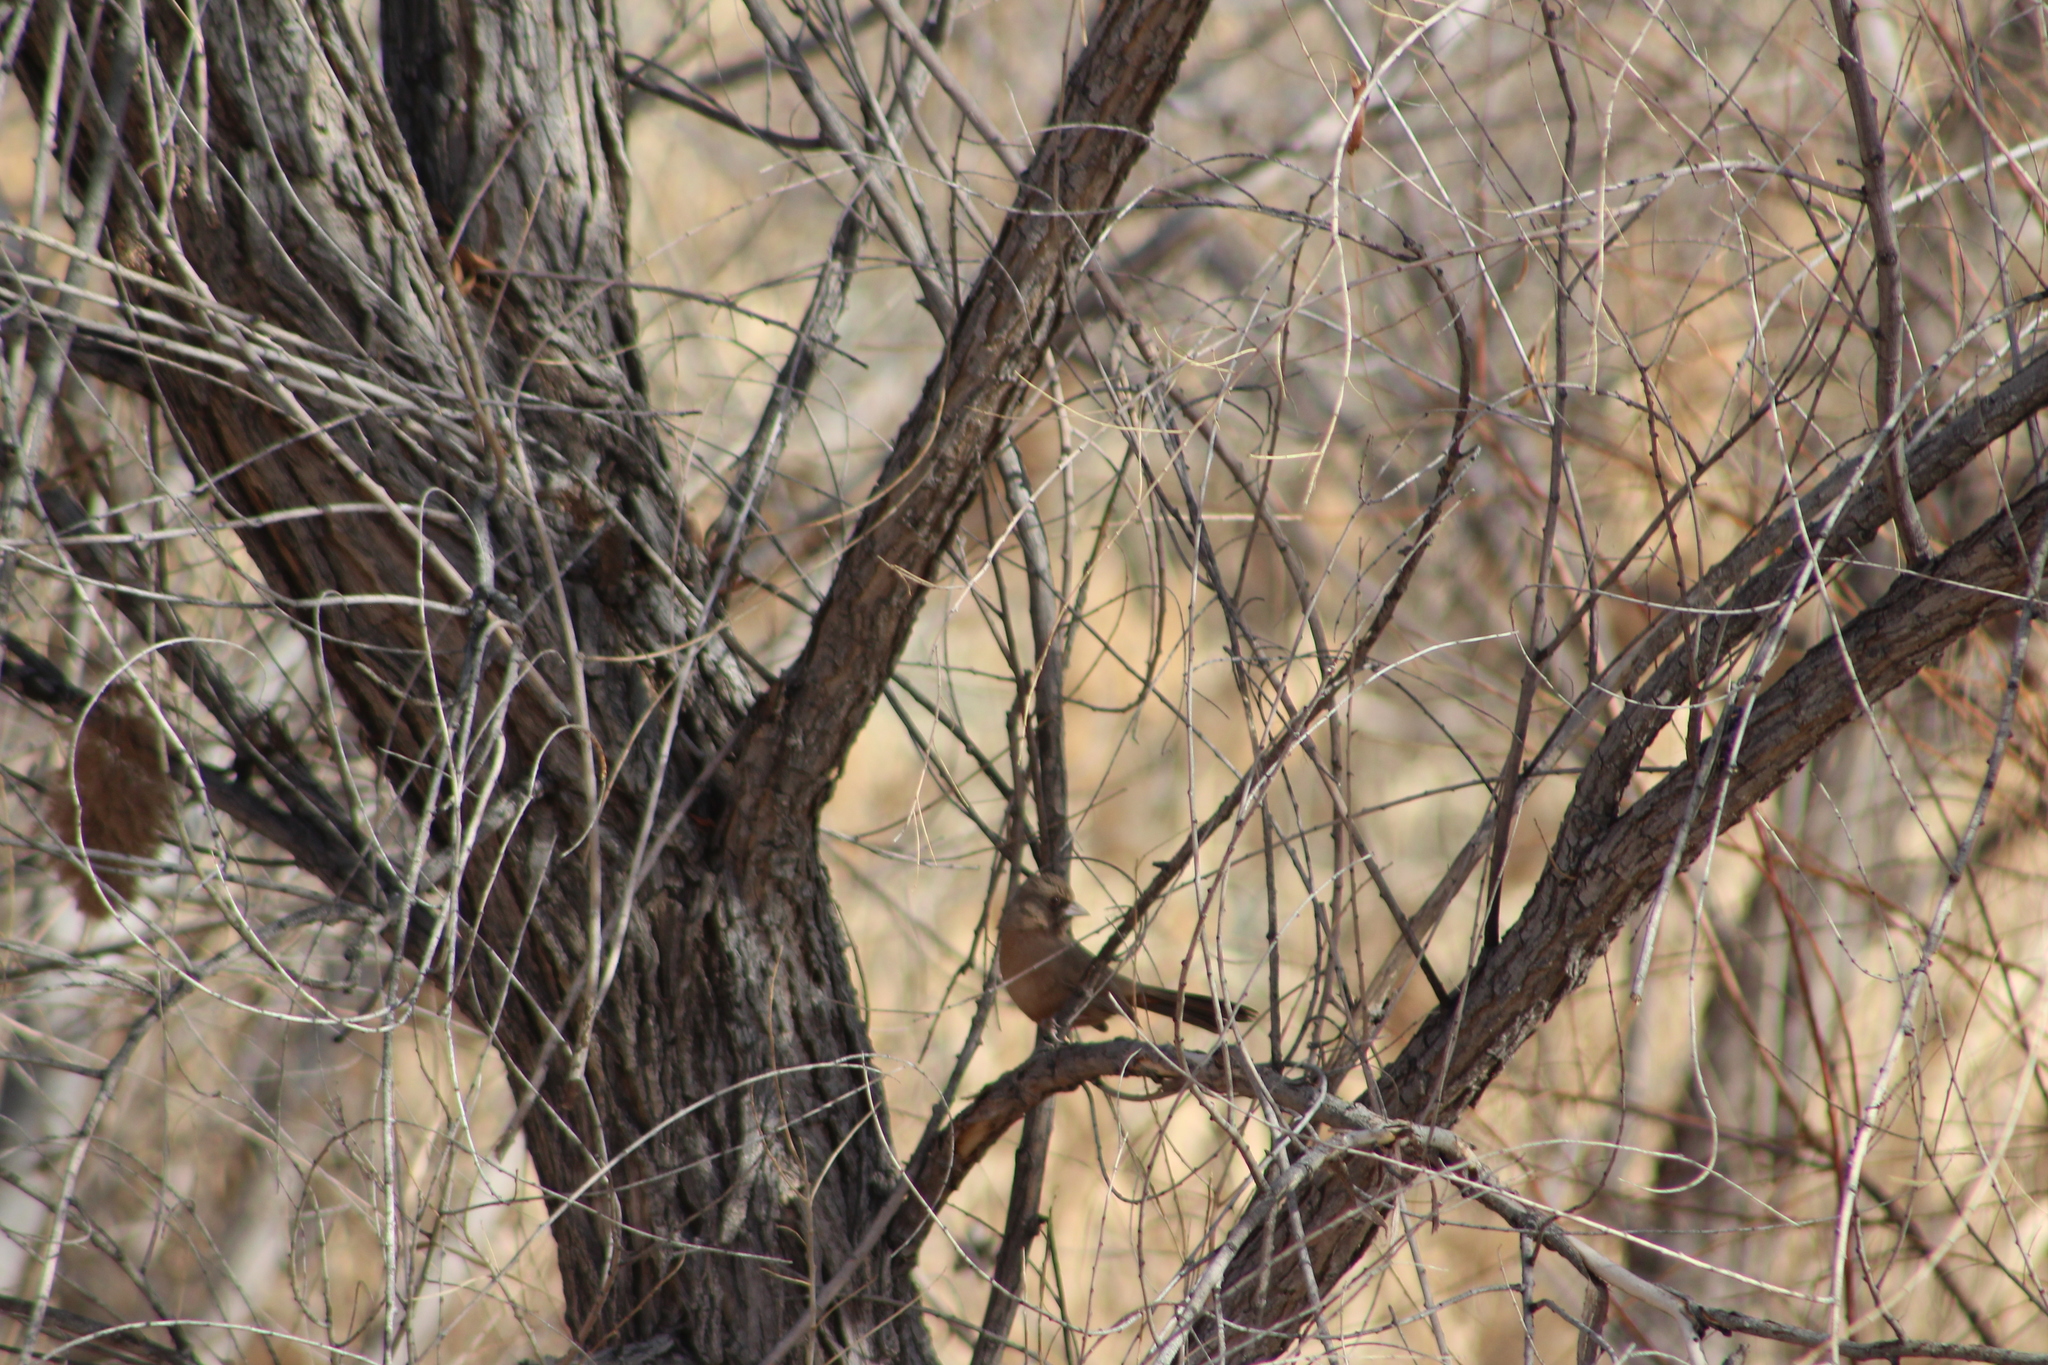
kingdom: Animalia
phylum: Chordata
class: Aves
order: Passeriformes
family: Passerellidae
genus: Melozone
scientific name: Melozone aberti
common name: Abert's towhee
